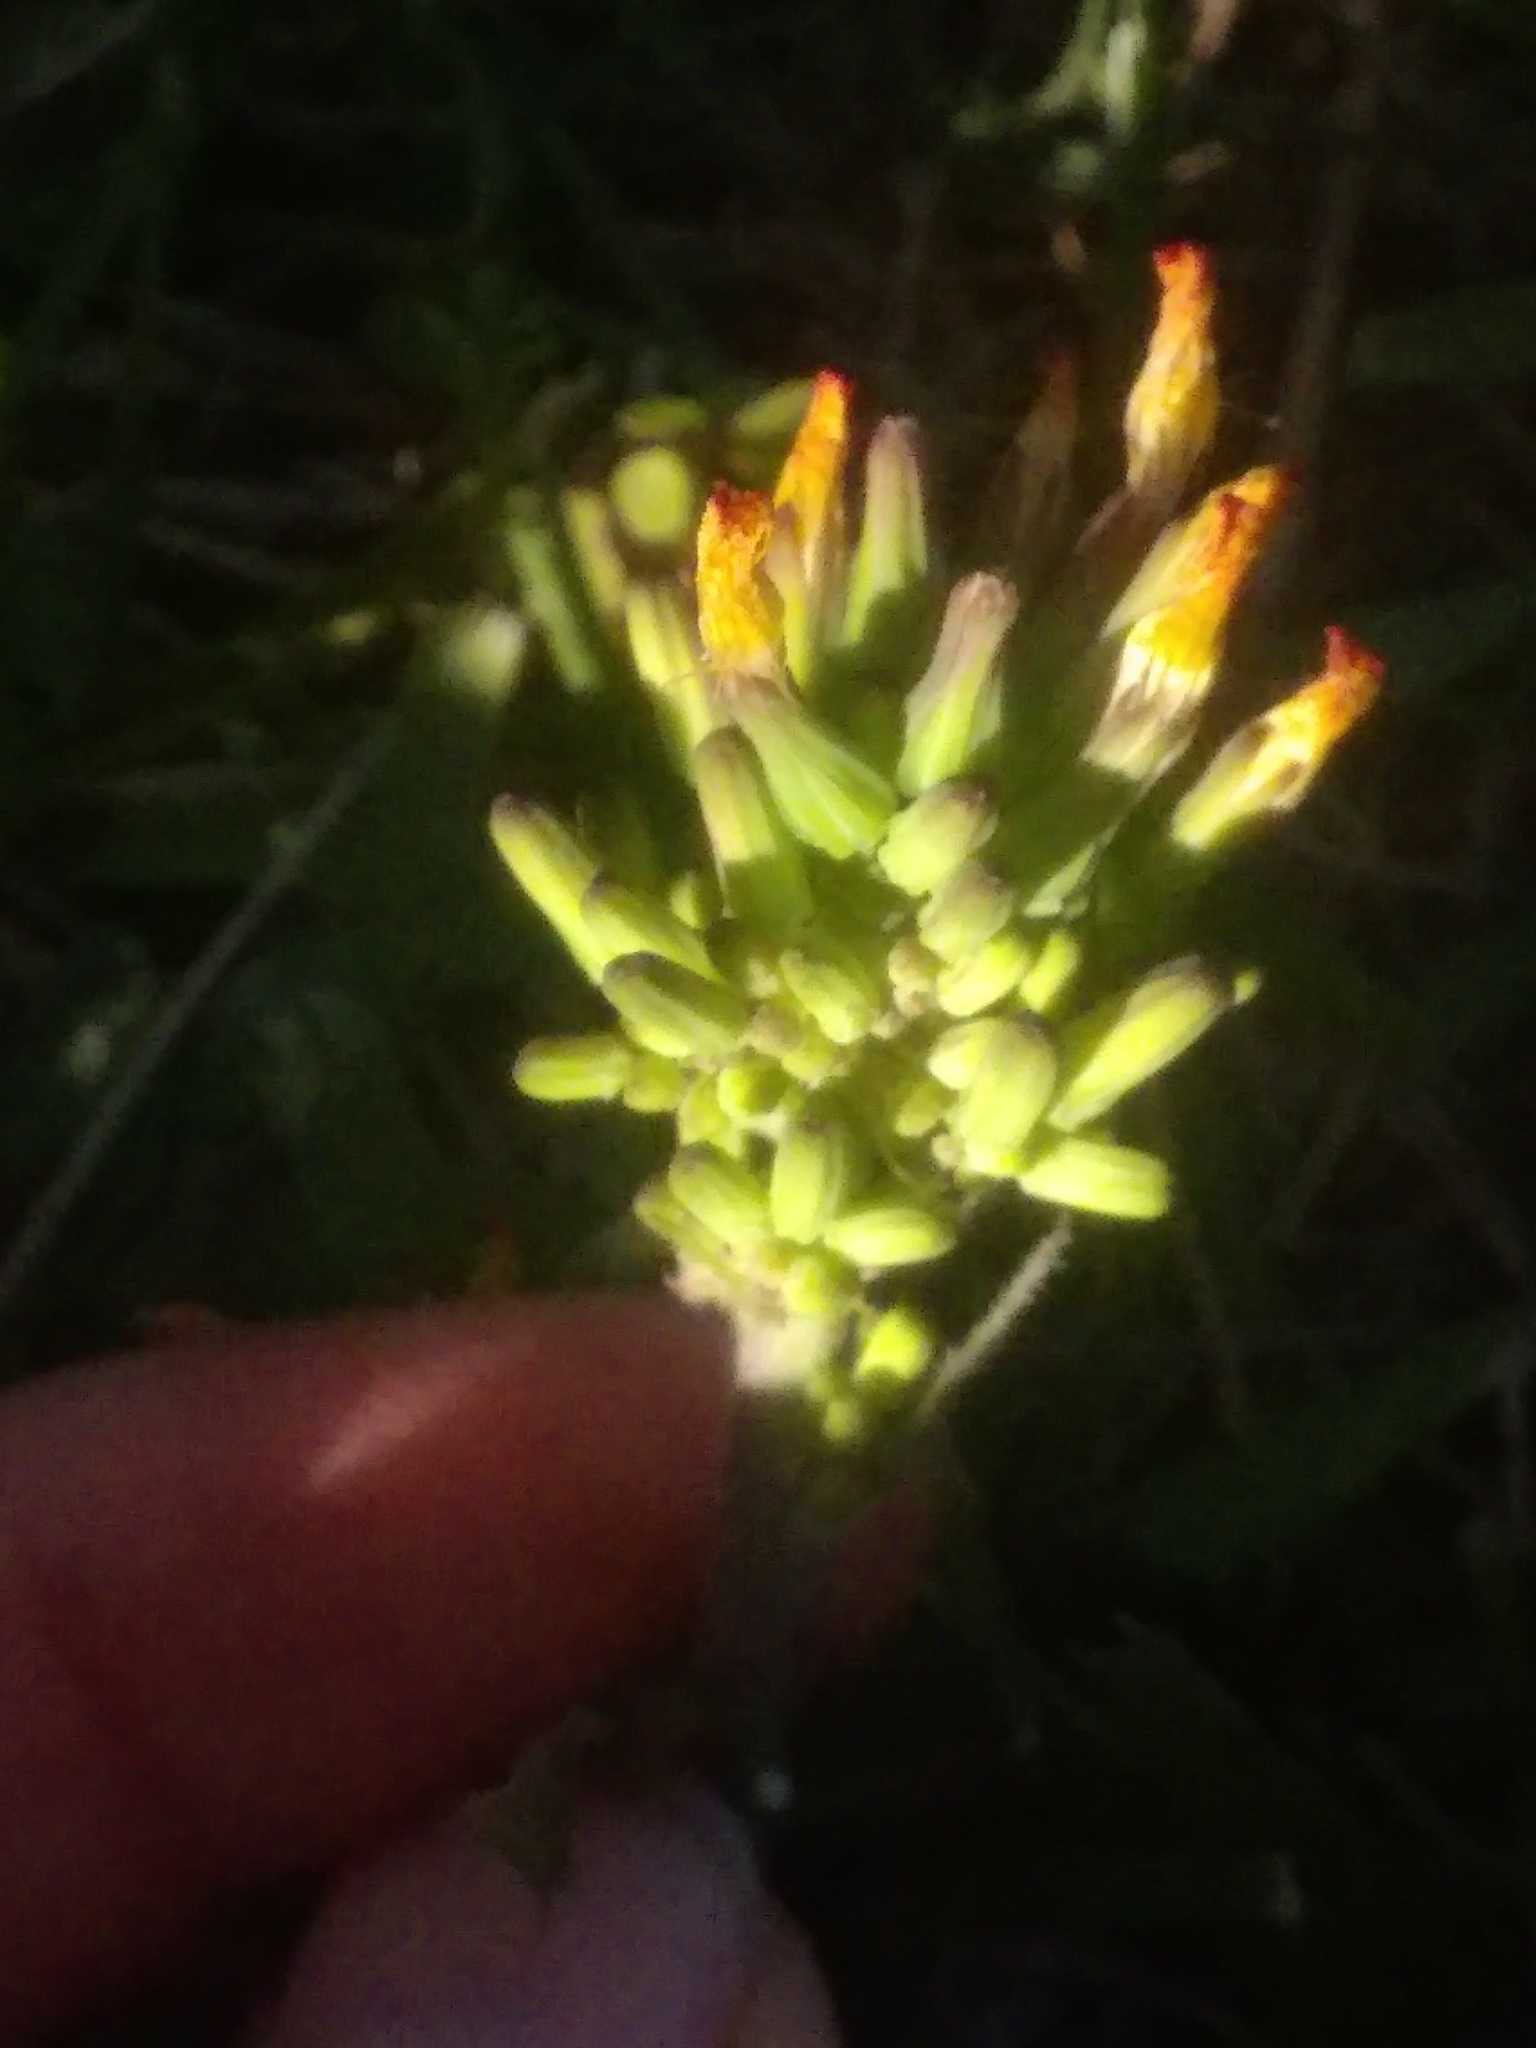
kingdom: Plantae
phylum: Tracheophyta
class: Magnoliopsida
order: Asterales
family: Asteraceae
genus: Youngia
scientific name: Youngia japonica
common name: Oriental false hawksbeard
